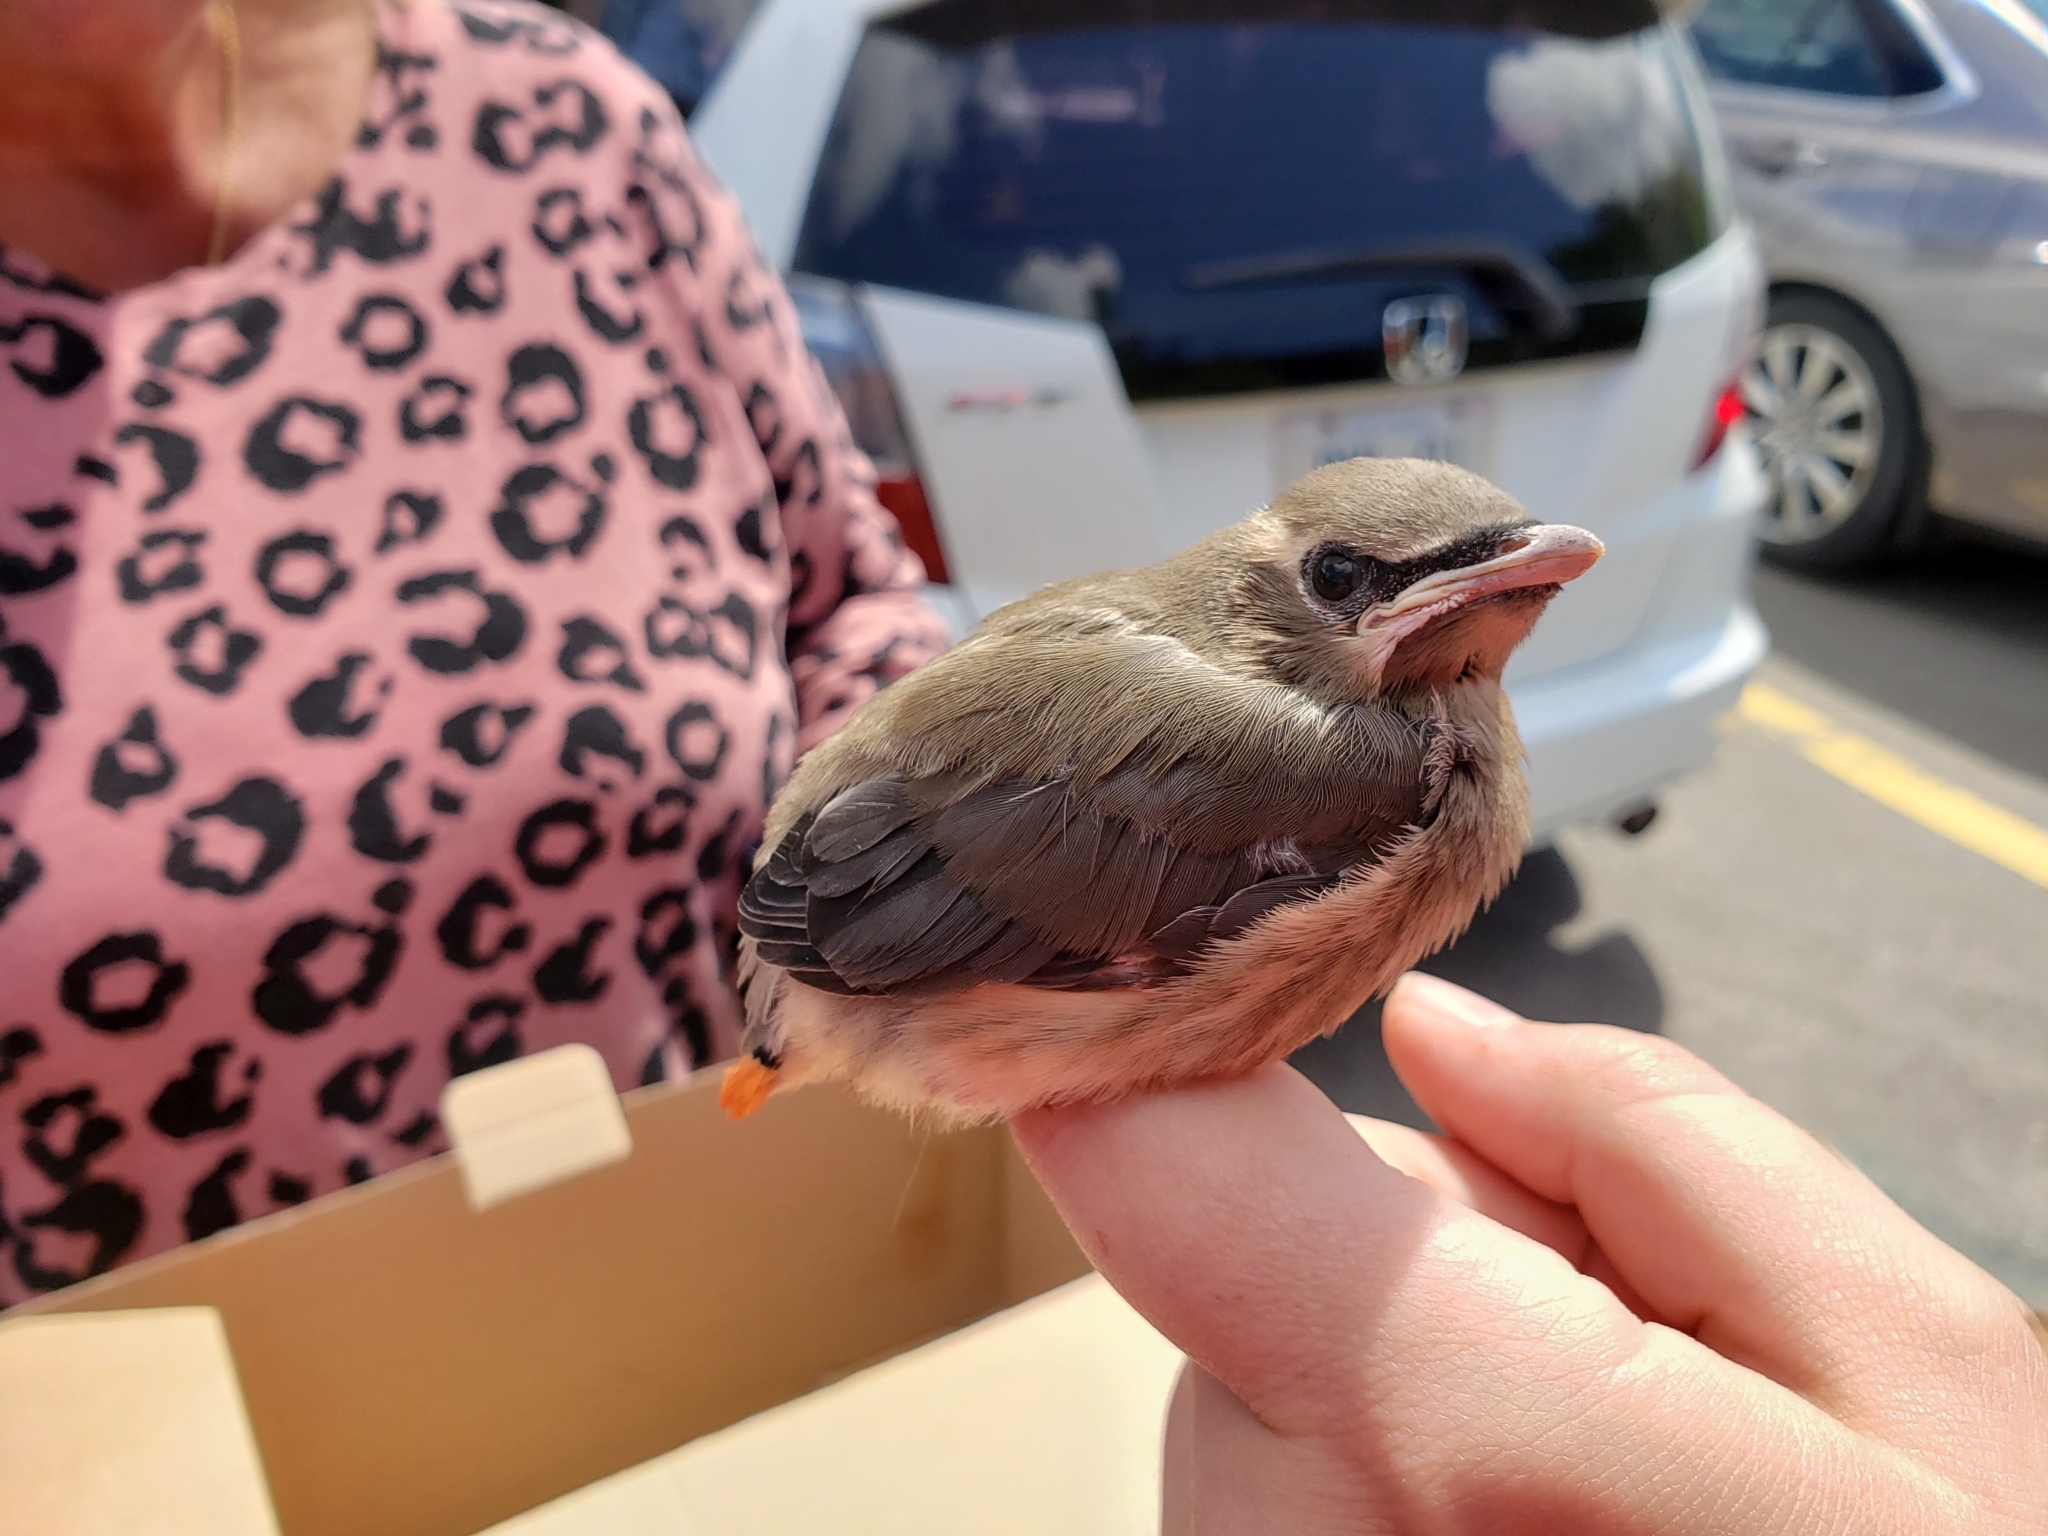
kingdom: Animalia
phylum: Chordata
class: Aves
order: Passeriformes
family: Bombycillidae
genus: Bombycilla
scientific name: Bombycilla cedrorum
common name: Cedar waxwing
